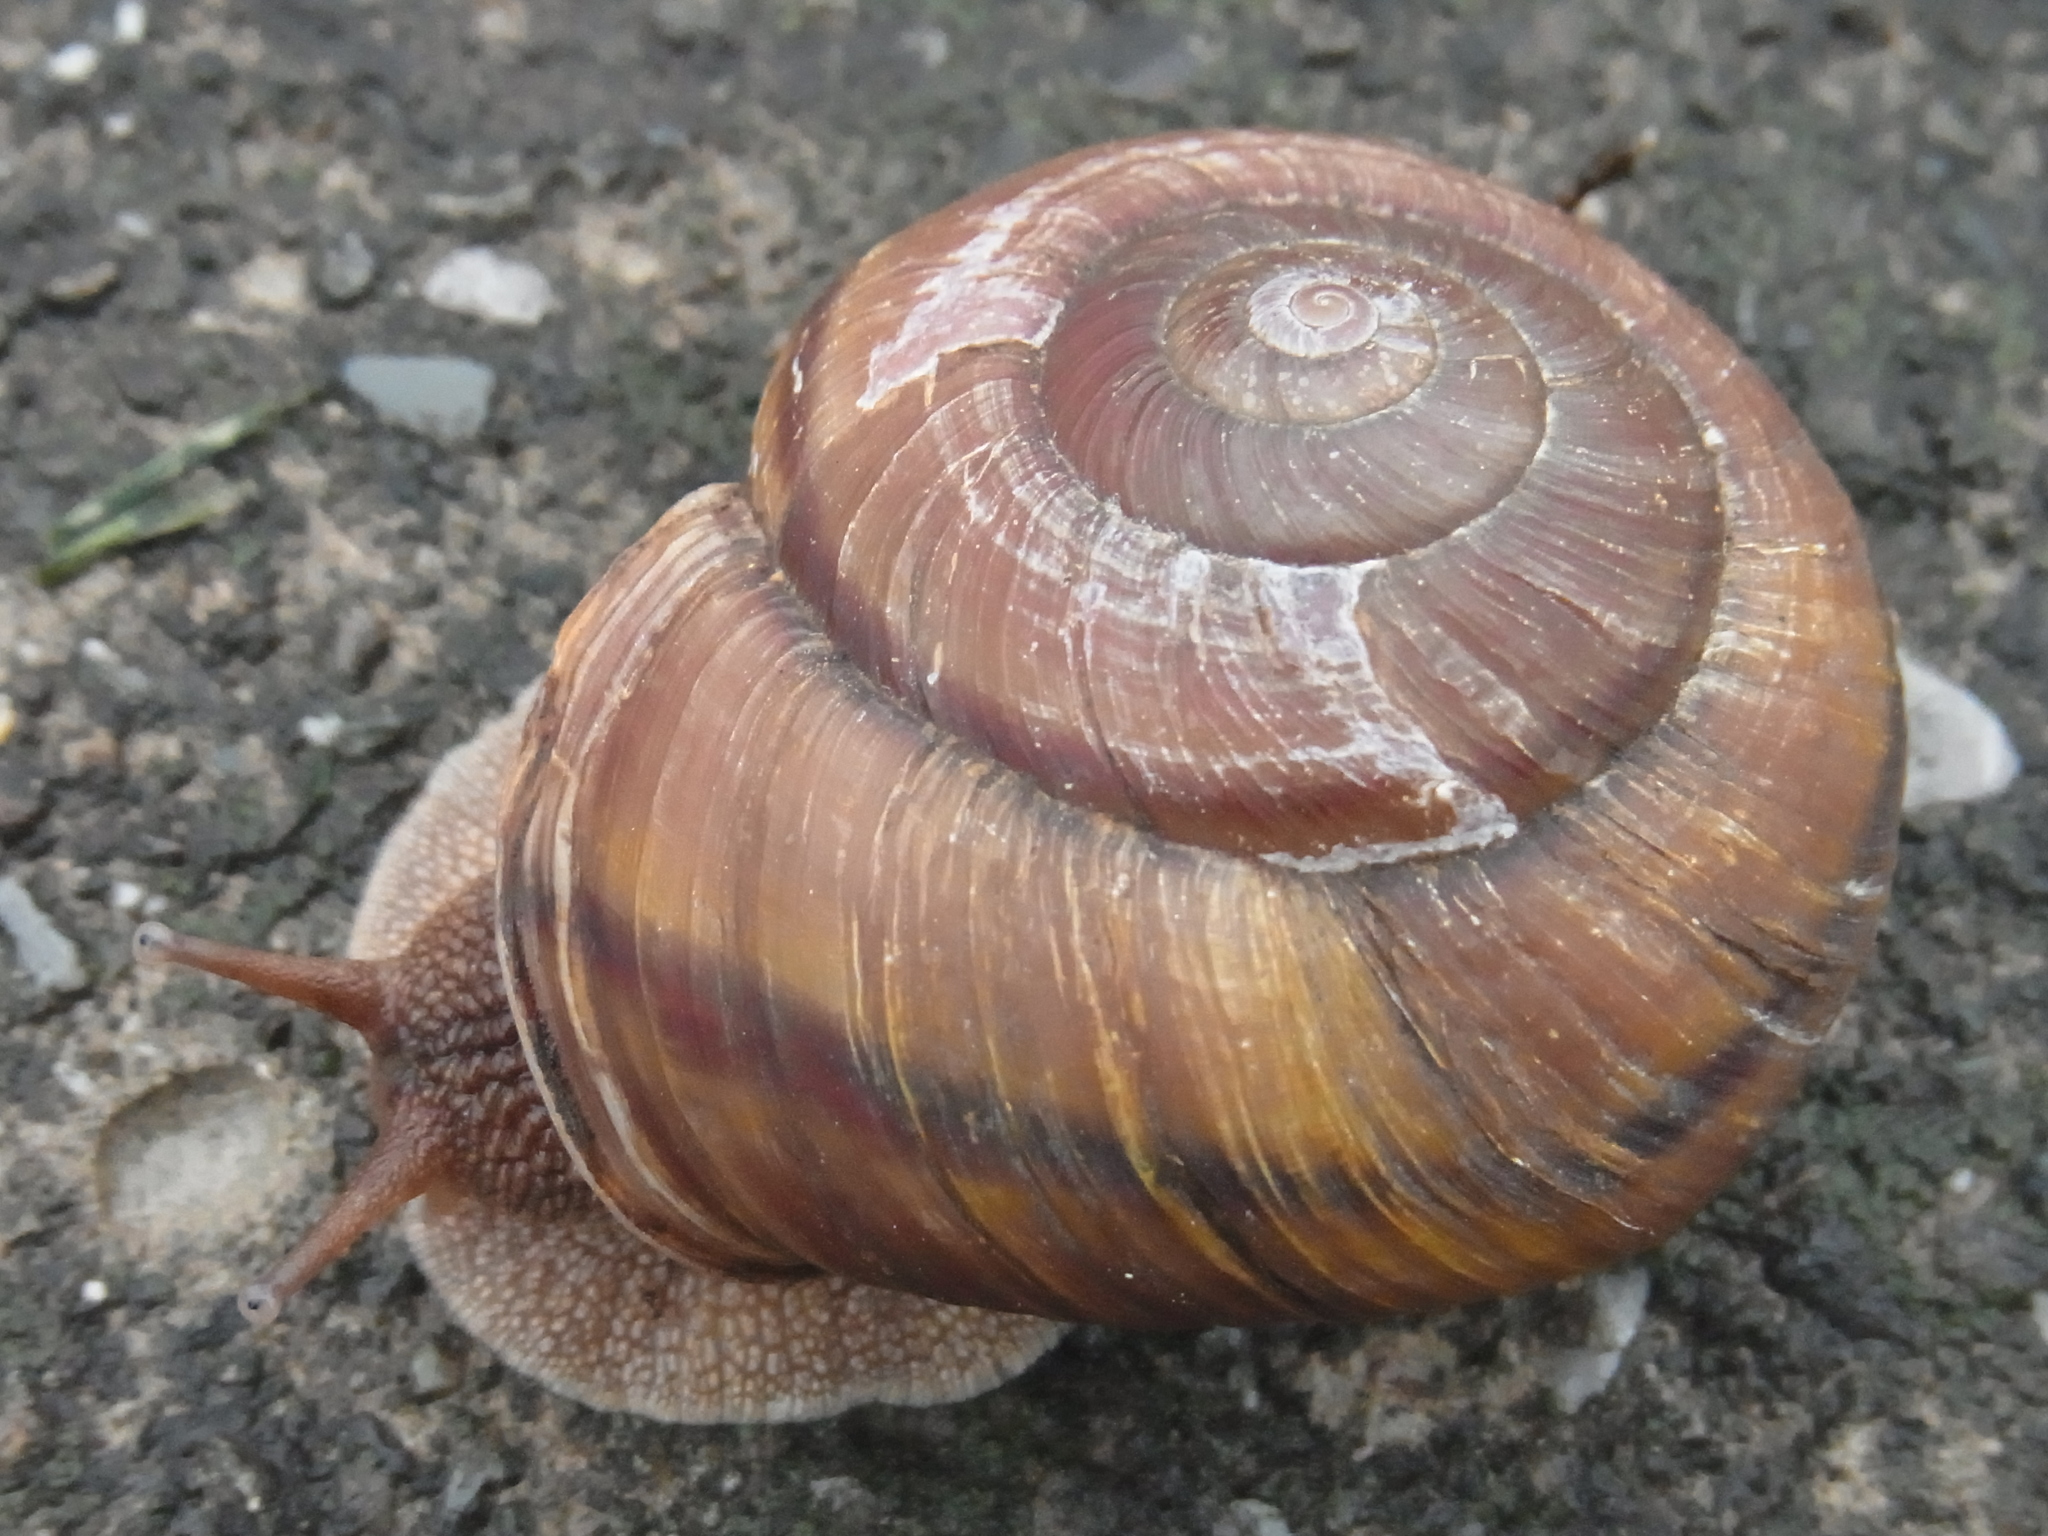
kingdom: Animalia
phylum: Mollusca
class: Gastropoda
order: Stylommatophora
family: Camaenidae
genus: Euhadra
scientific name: Euhadra awaensis
